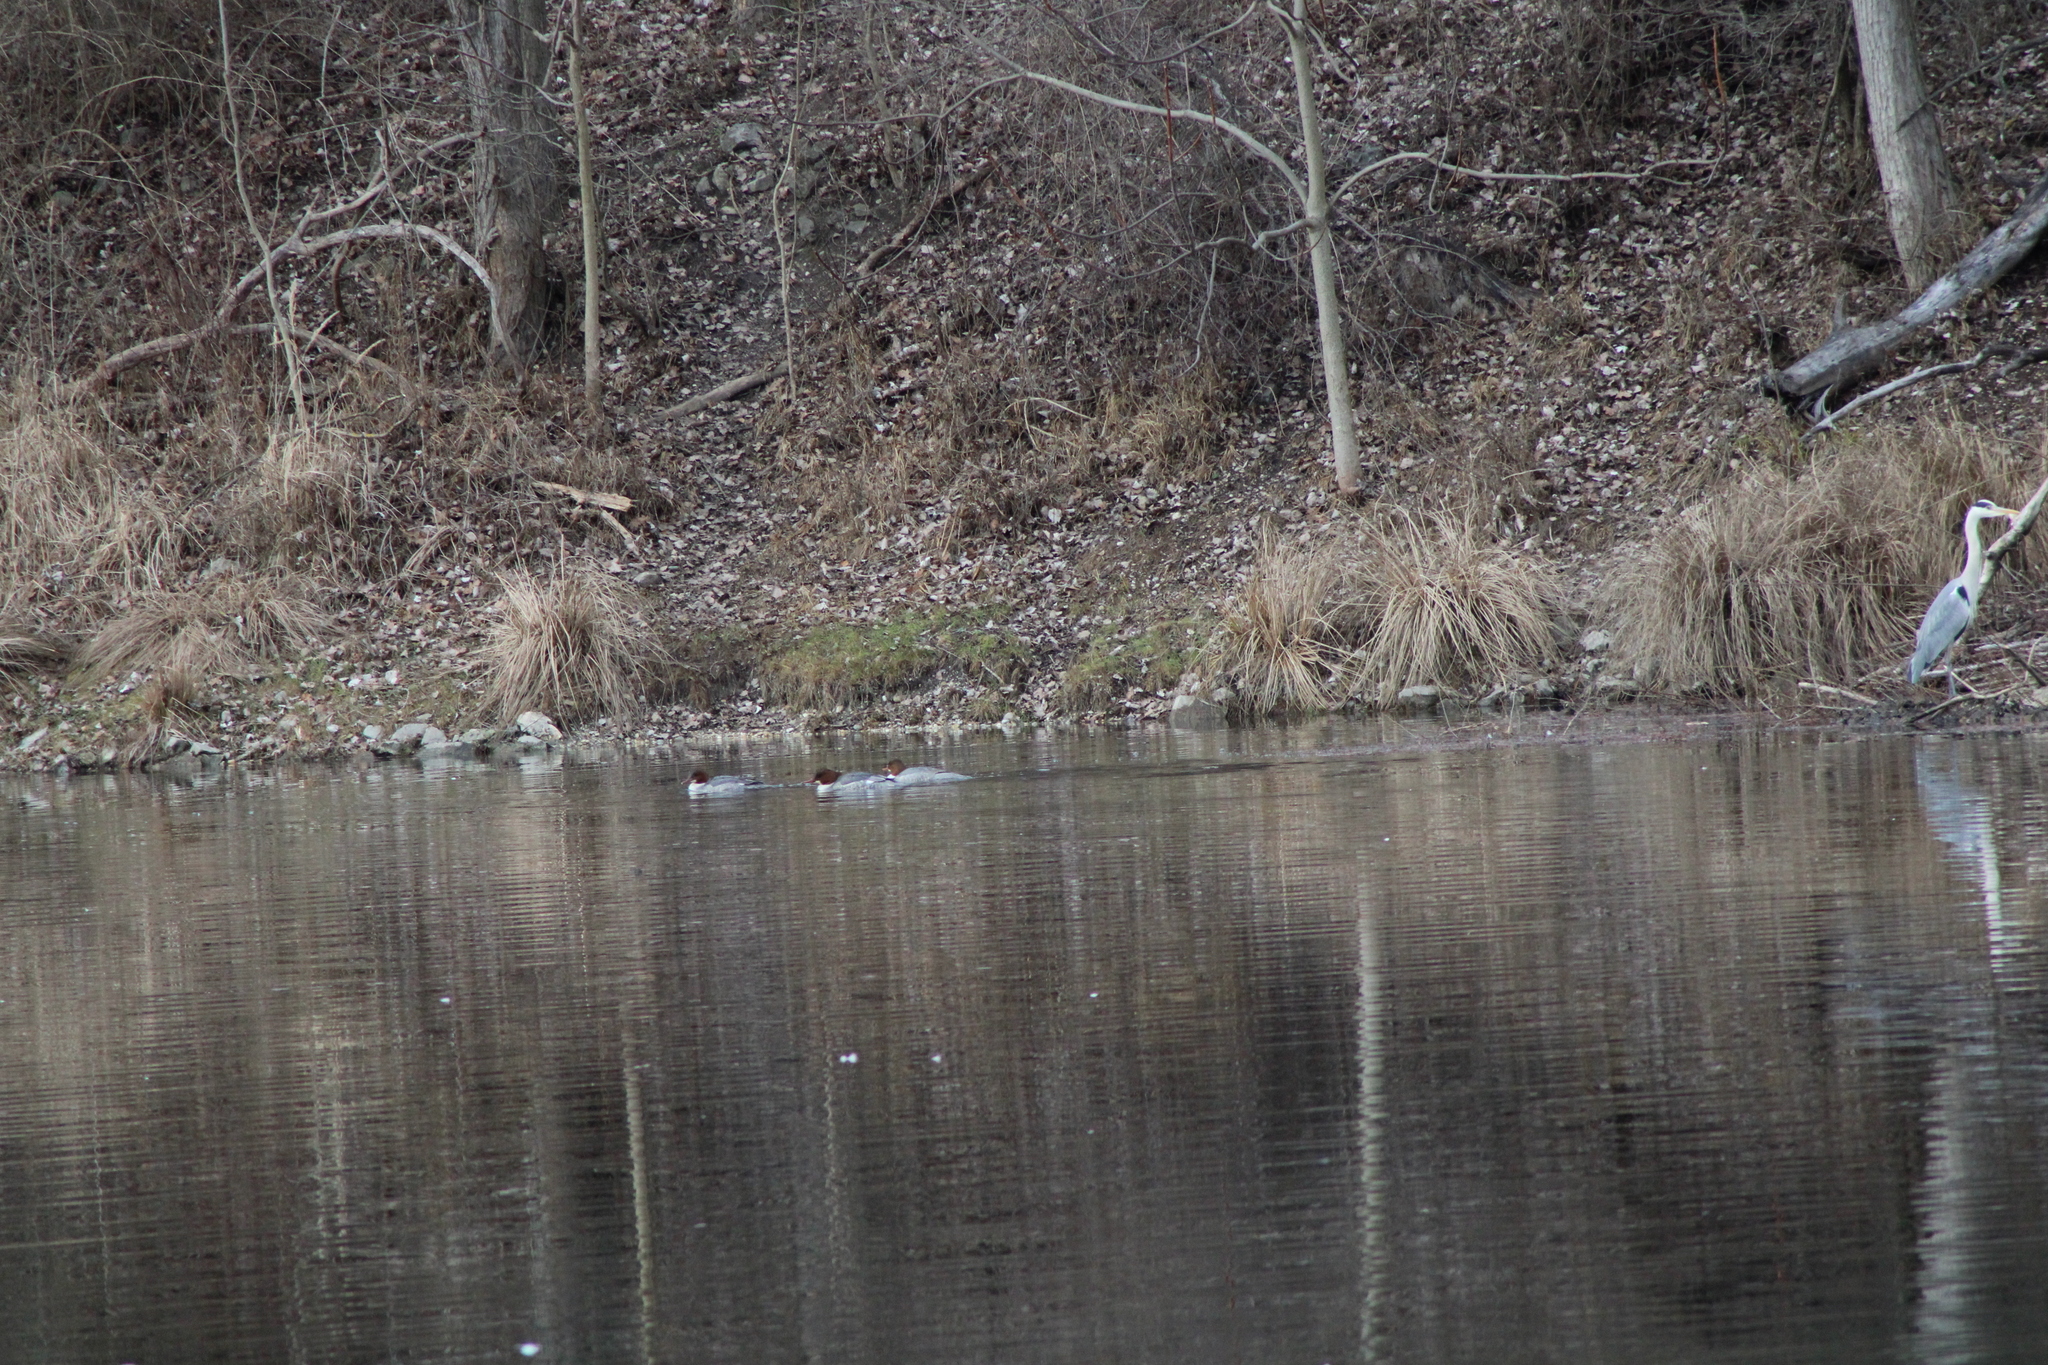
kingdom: Animalia
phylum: Chordata
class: Aves
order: Anseriformes
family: Anatidae
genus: Mergus
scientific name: Mergus merganser
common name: Common merganser
